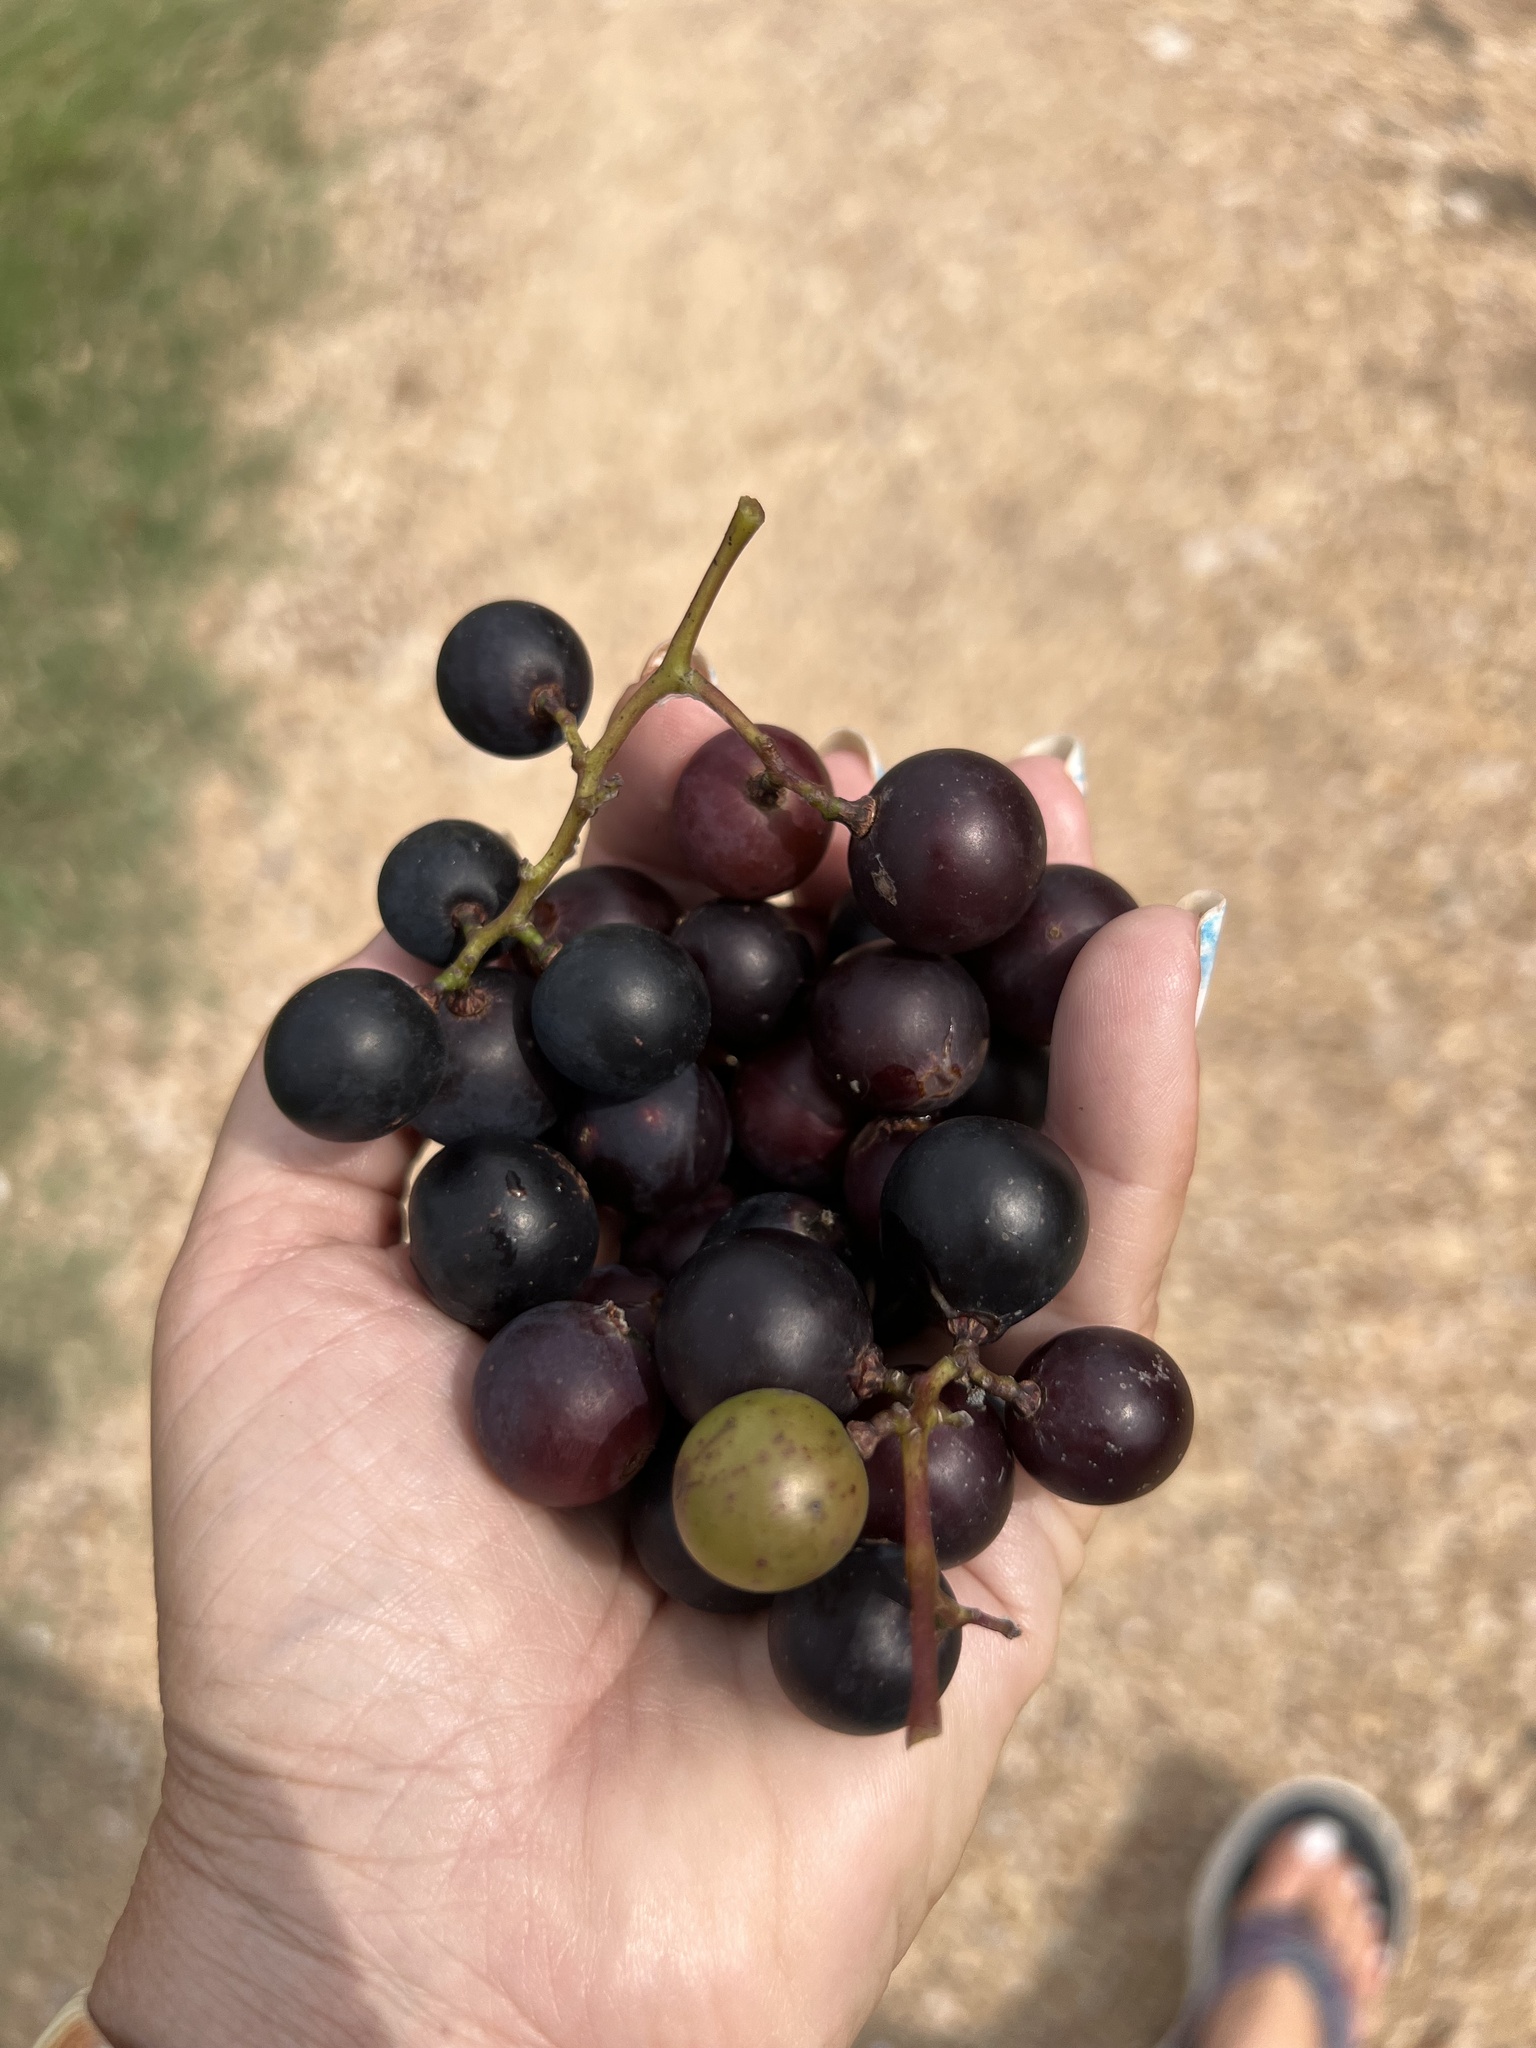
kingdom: Plantae
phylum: Tracheophyta
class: Magnoliopsida
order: Vitales
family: Vitaceae
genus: Vitis
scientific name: Vitis mustangensis
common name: Mustang grape
